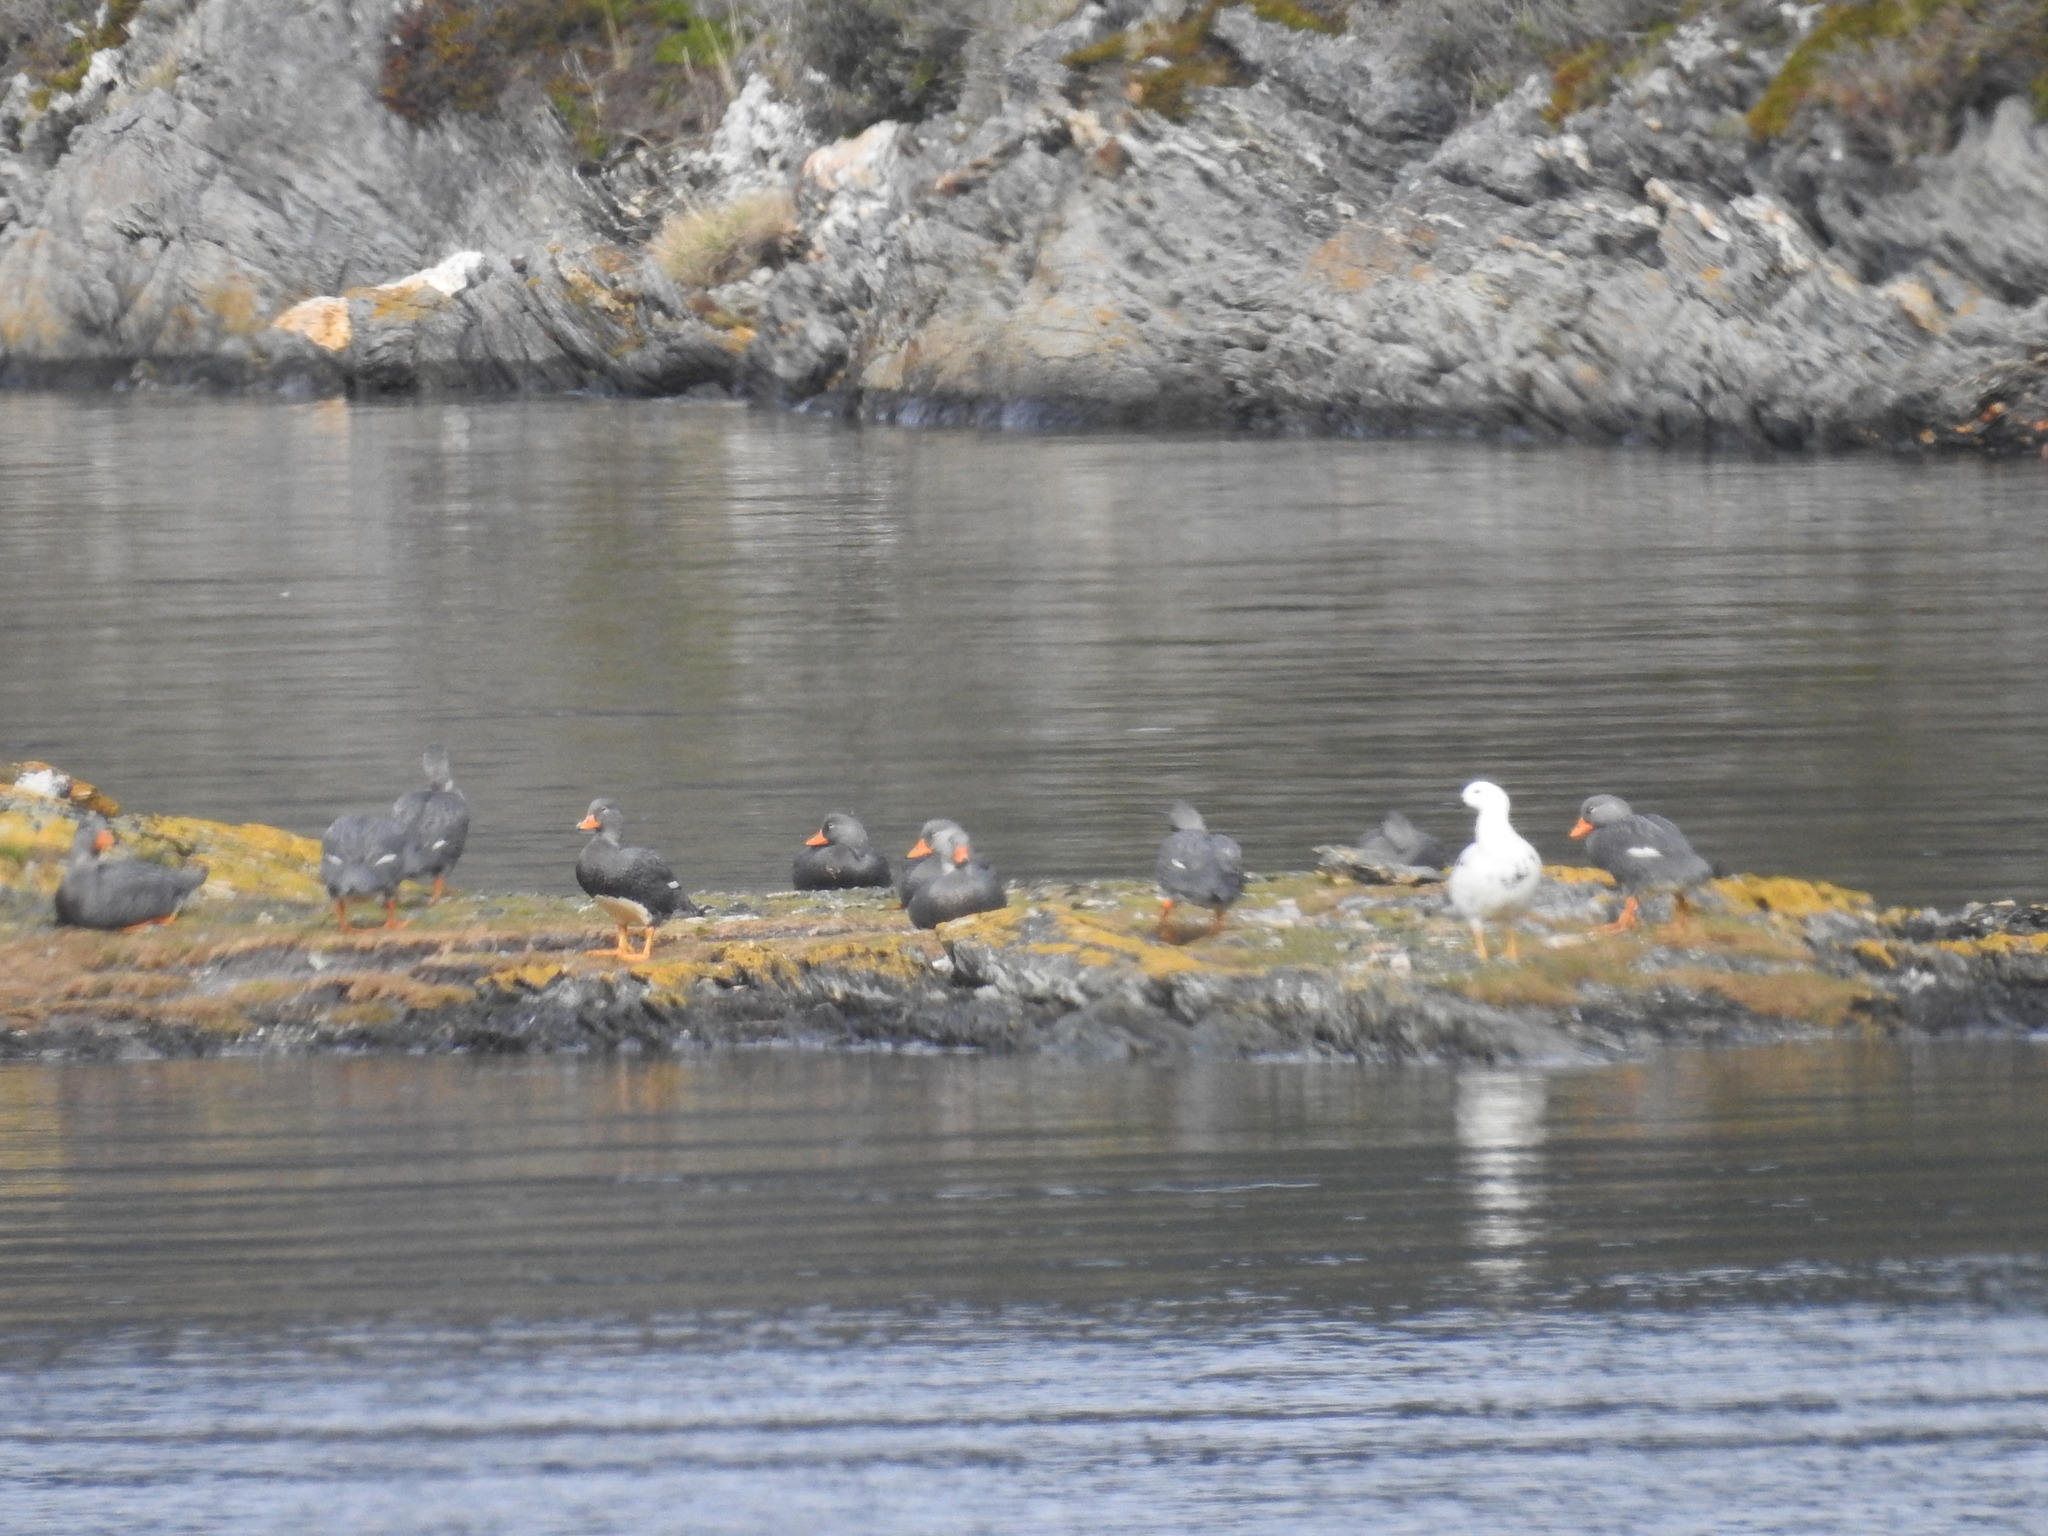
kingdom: Animalia
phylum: Chordata
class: Aves
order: Anseriformes
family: Anatidae
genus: Tachyeres
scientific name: Tachyeres pteneres
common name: Fuegian steamer duck
